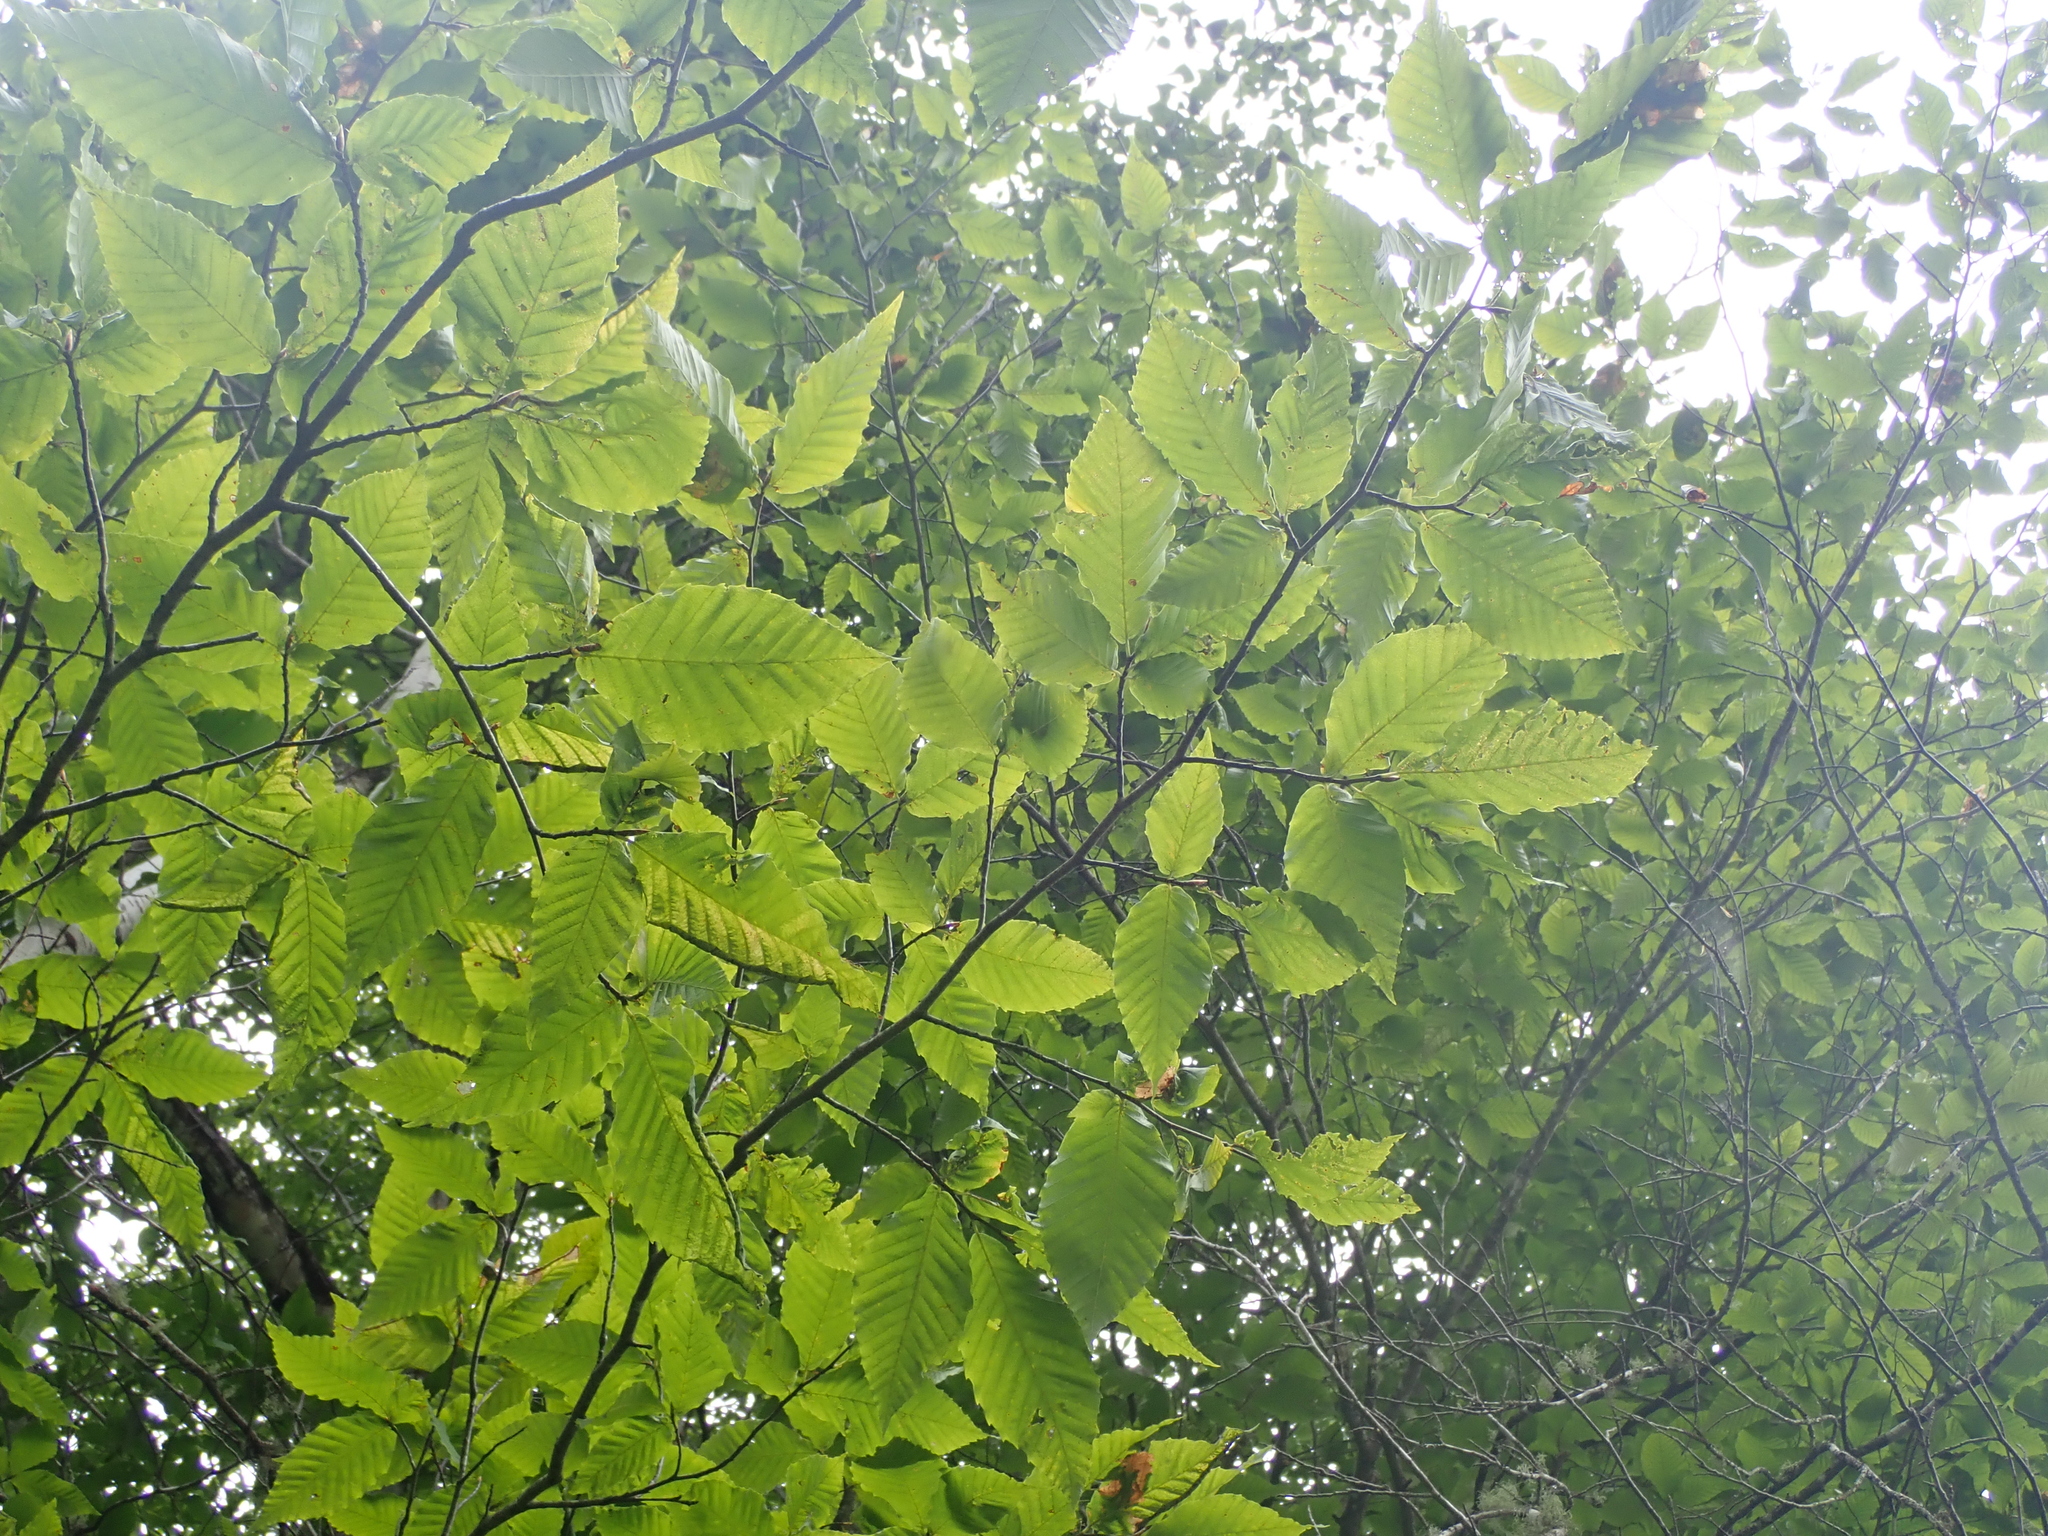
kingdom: Plantae
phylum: Tracheophyta
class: Magnoliopsida
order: Fagales
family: Fagaceae
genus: Fagus
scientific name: Fagus grandifolia
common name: American beech
